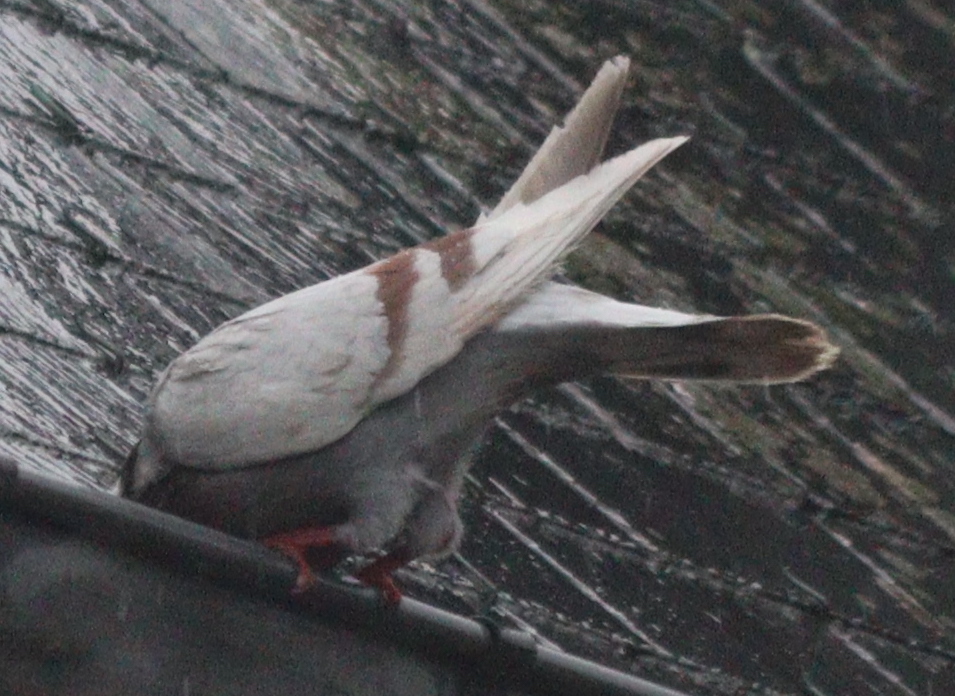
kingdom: Animalia
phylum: Chordata
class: Aves
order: Columbiformes
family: Columbidae
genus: Columba
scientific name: Columba livia
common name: Rock pigeon
